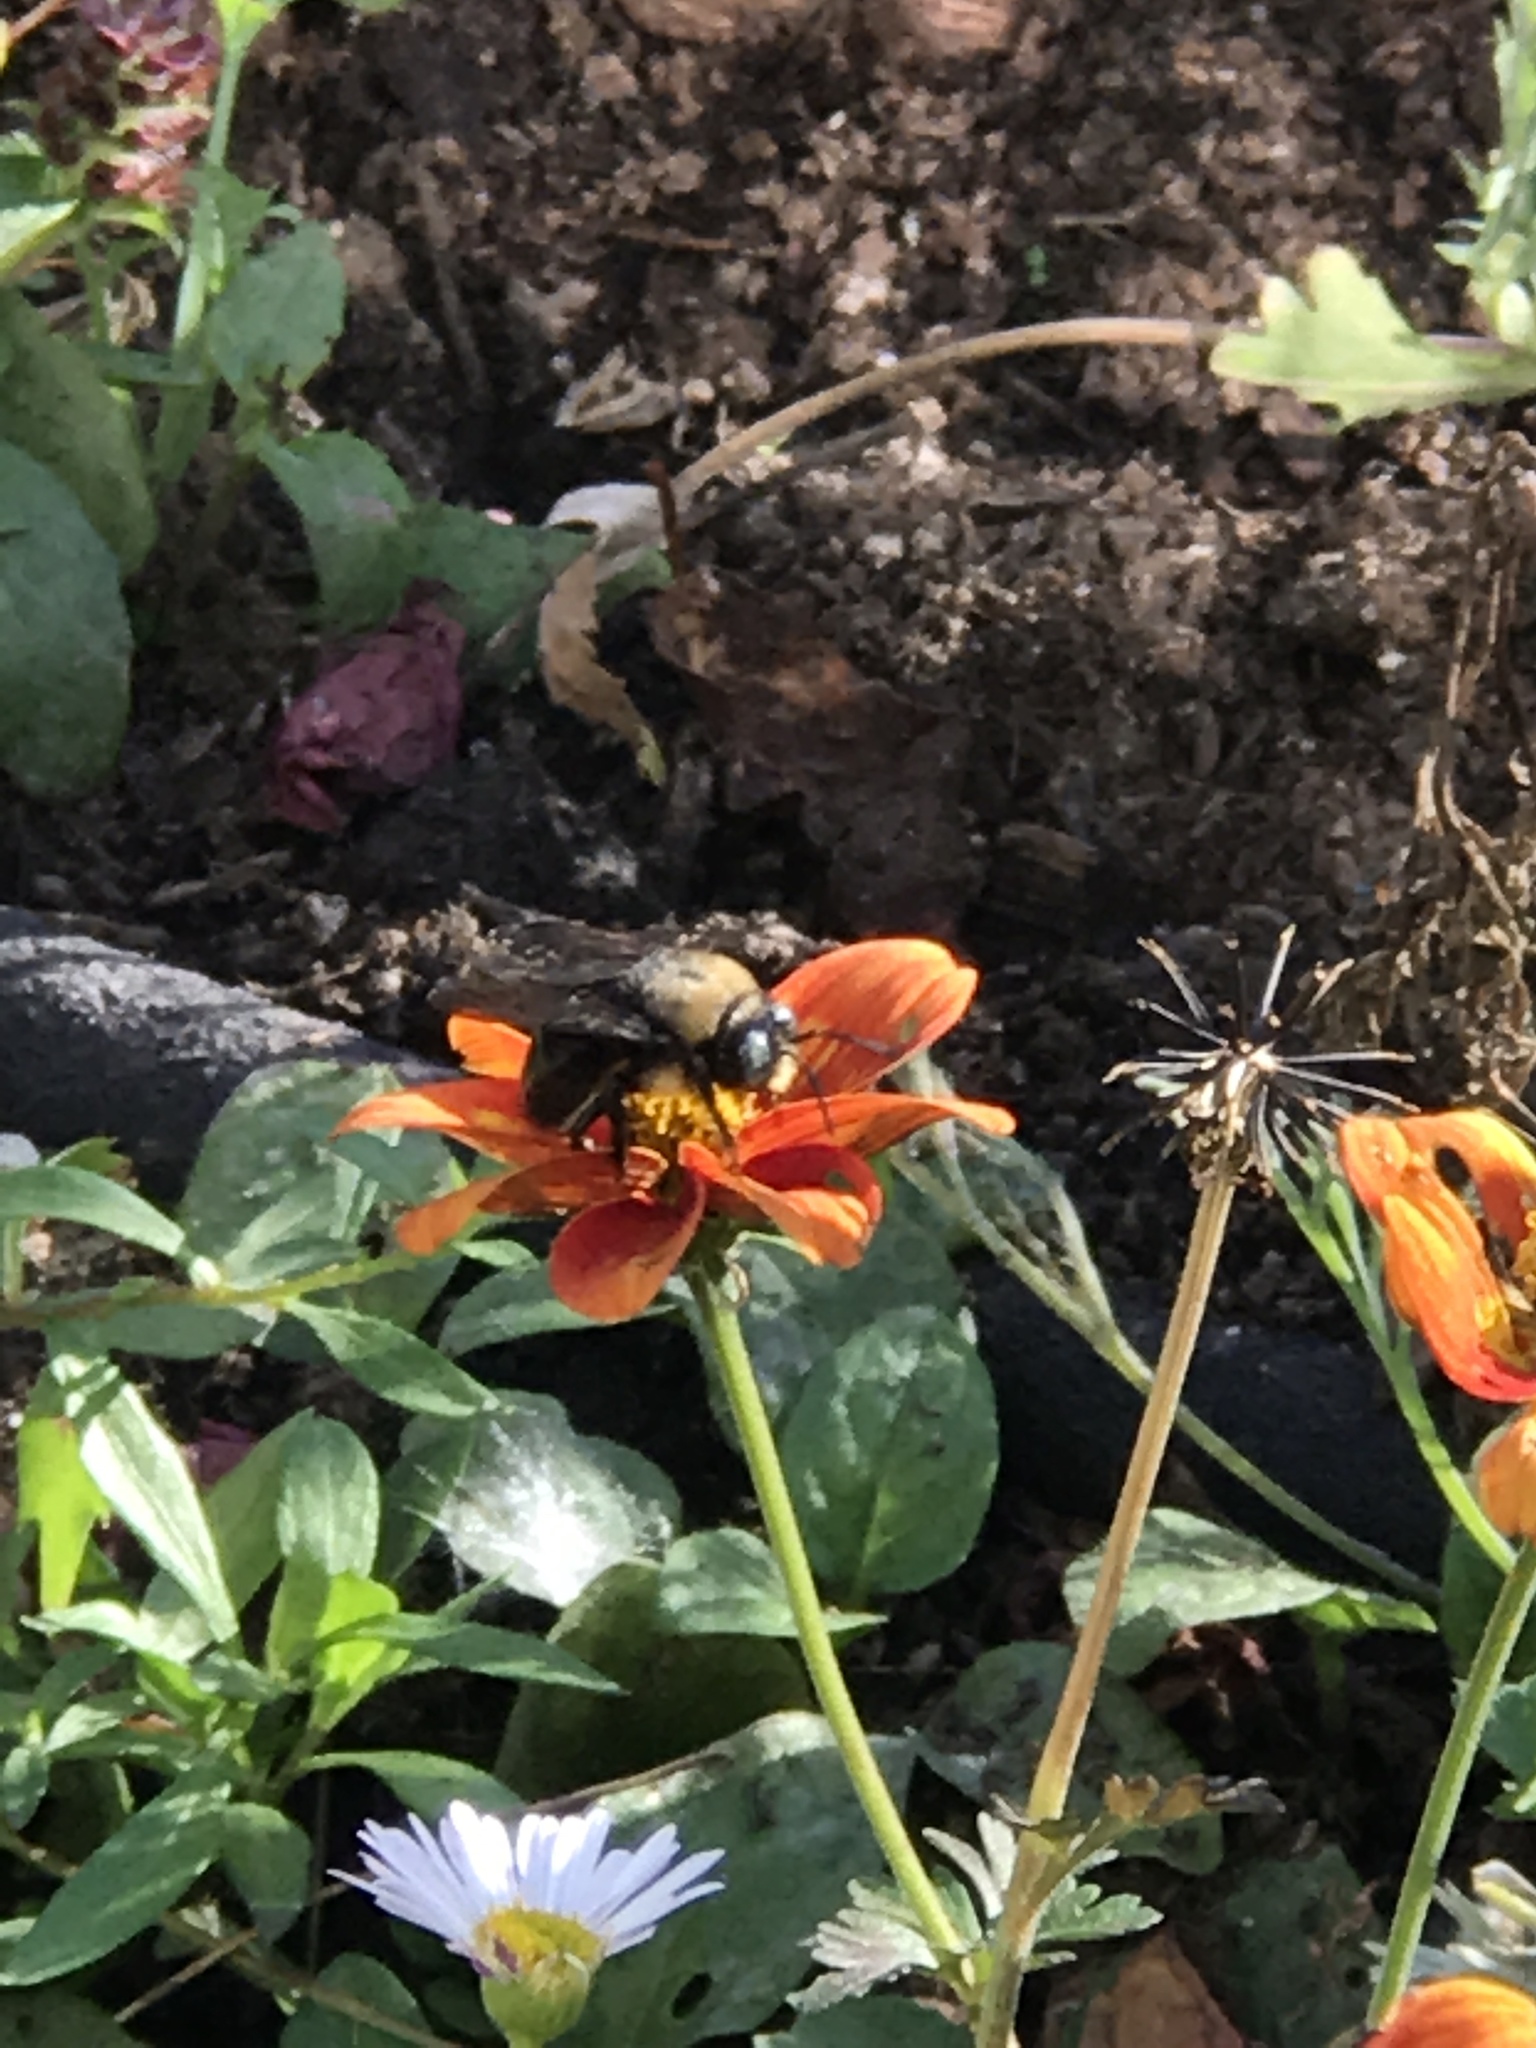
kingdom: Animalia
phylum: Arthropoda
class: Insecta
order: Hymenoptera
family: Apidae
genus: Xylocopa
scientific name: Xylocopa tabaniformis
